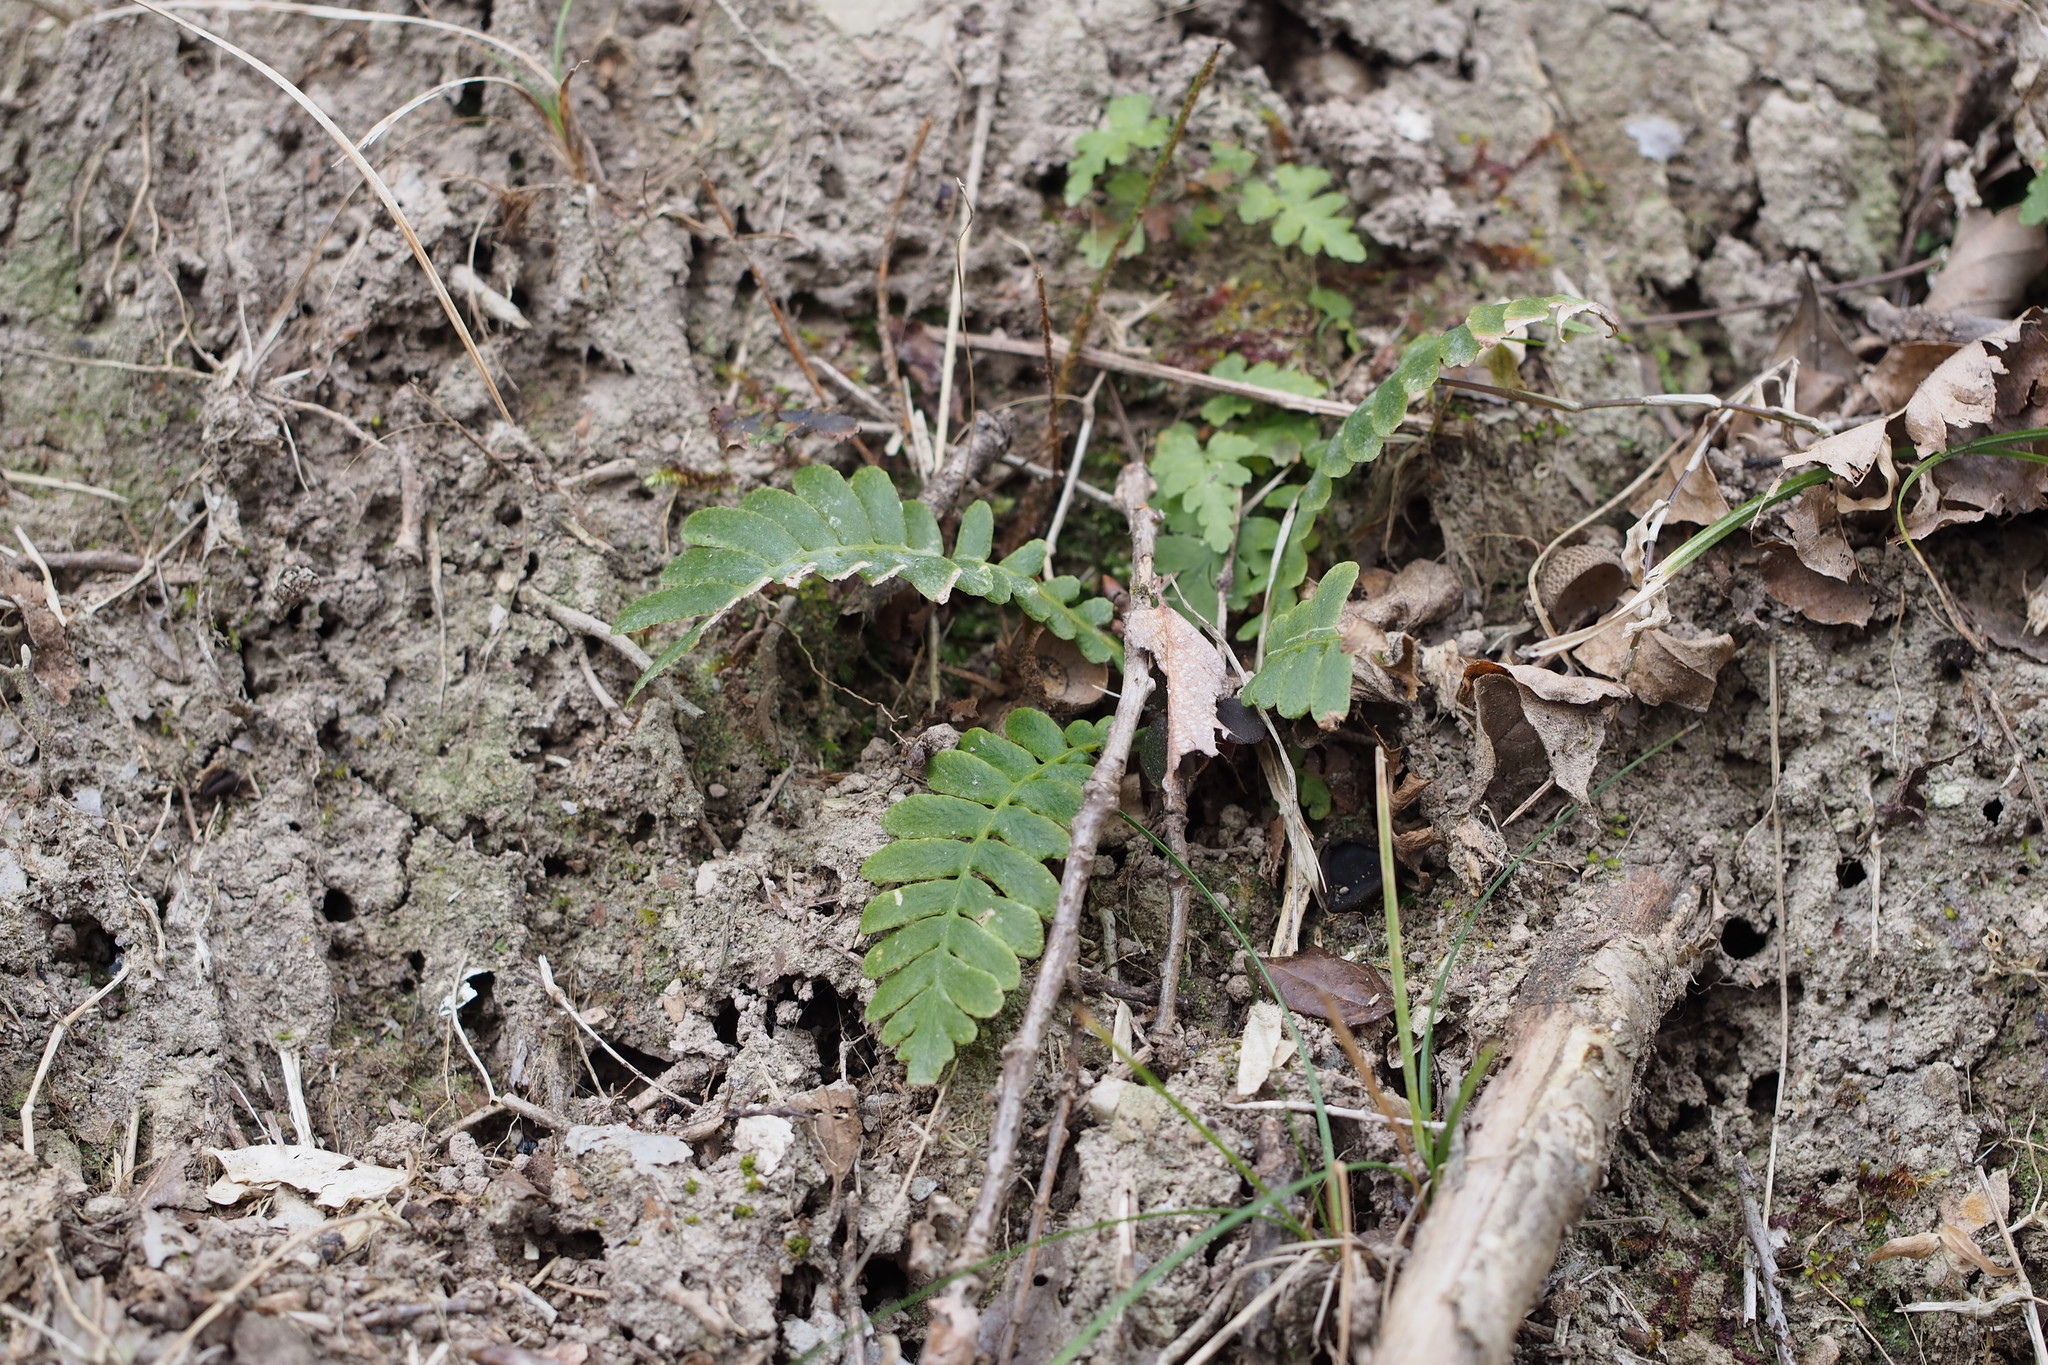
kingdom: Plantae
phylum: Tracheophyta
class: Polypodiopsida
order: Polypodiales
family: Blechnaceae
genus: Spicantopsis
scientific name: Spicantopsis niponica
